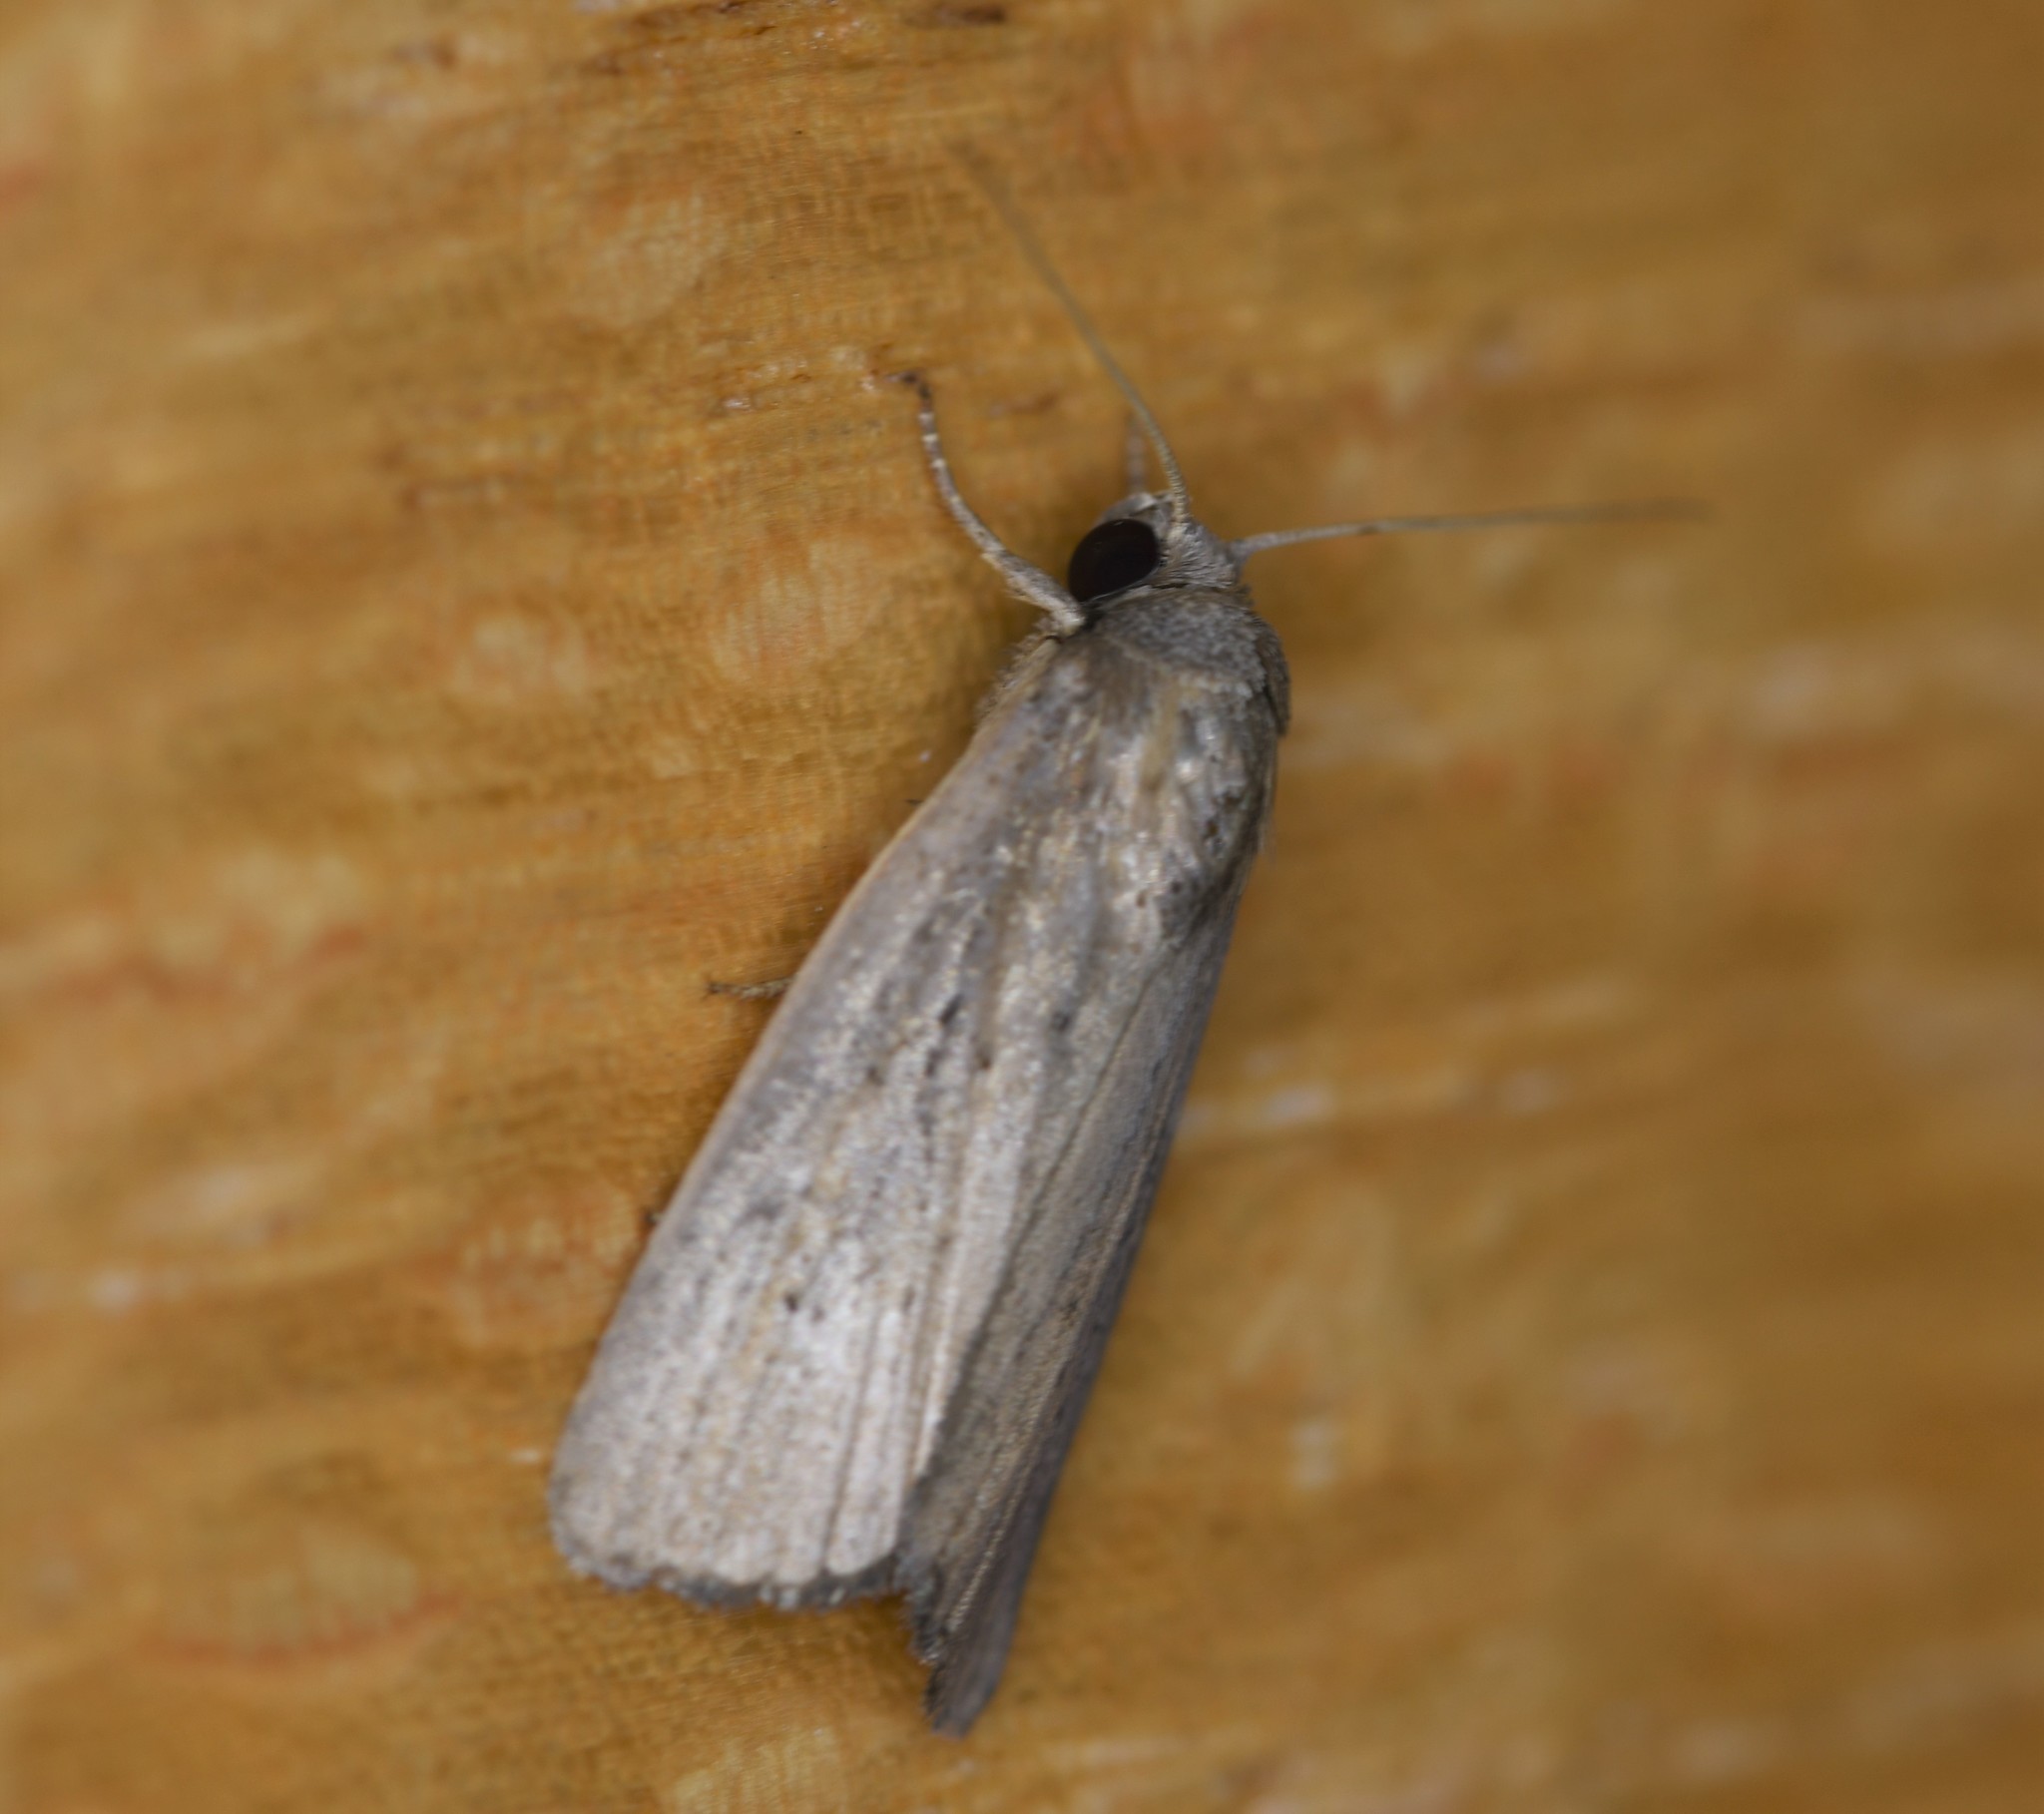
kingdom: Animalia
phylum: Arthropoda
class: Insecta
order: Lepidoptera
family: Noctuidae
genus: Athetis
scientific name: Athetis hospes
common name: Porter's rustic
